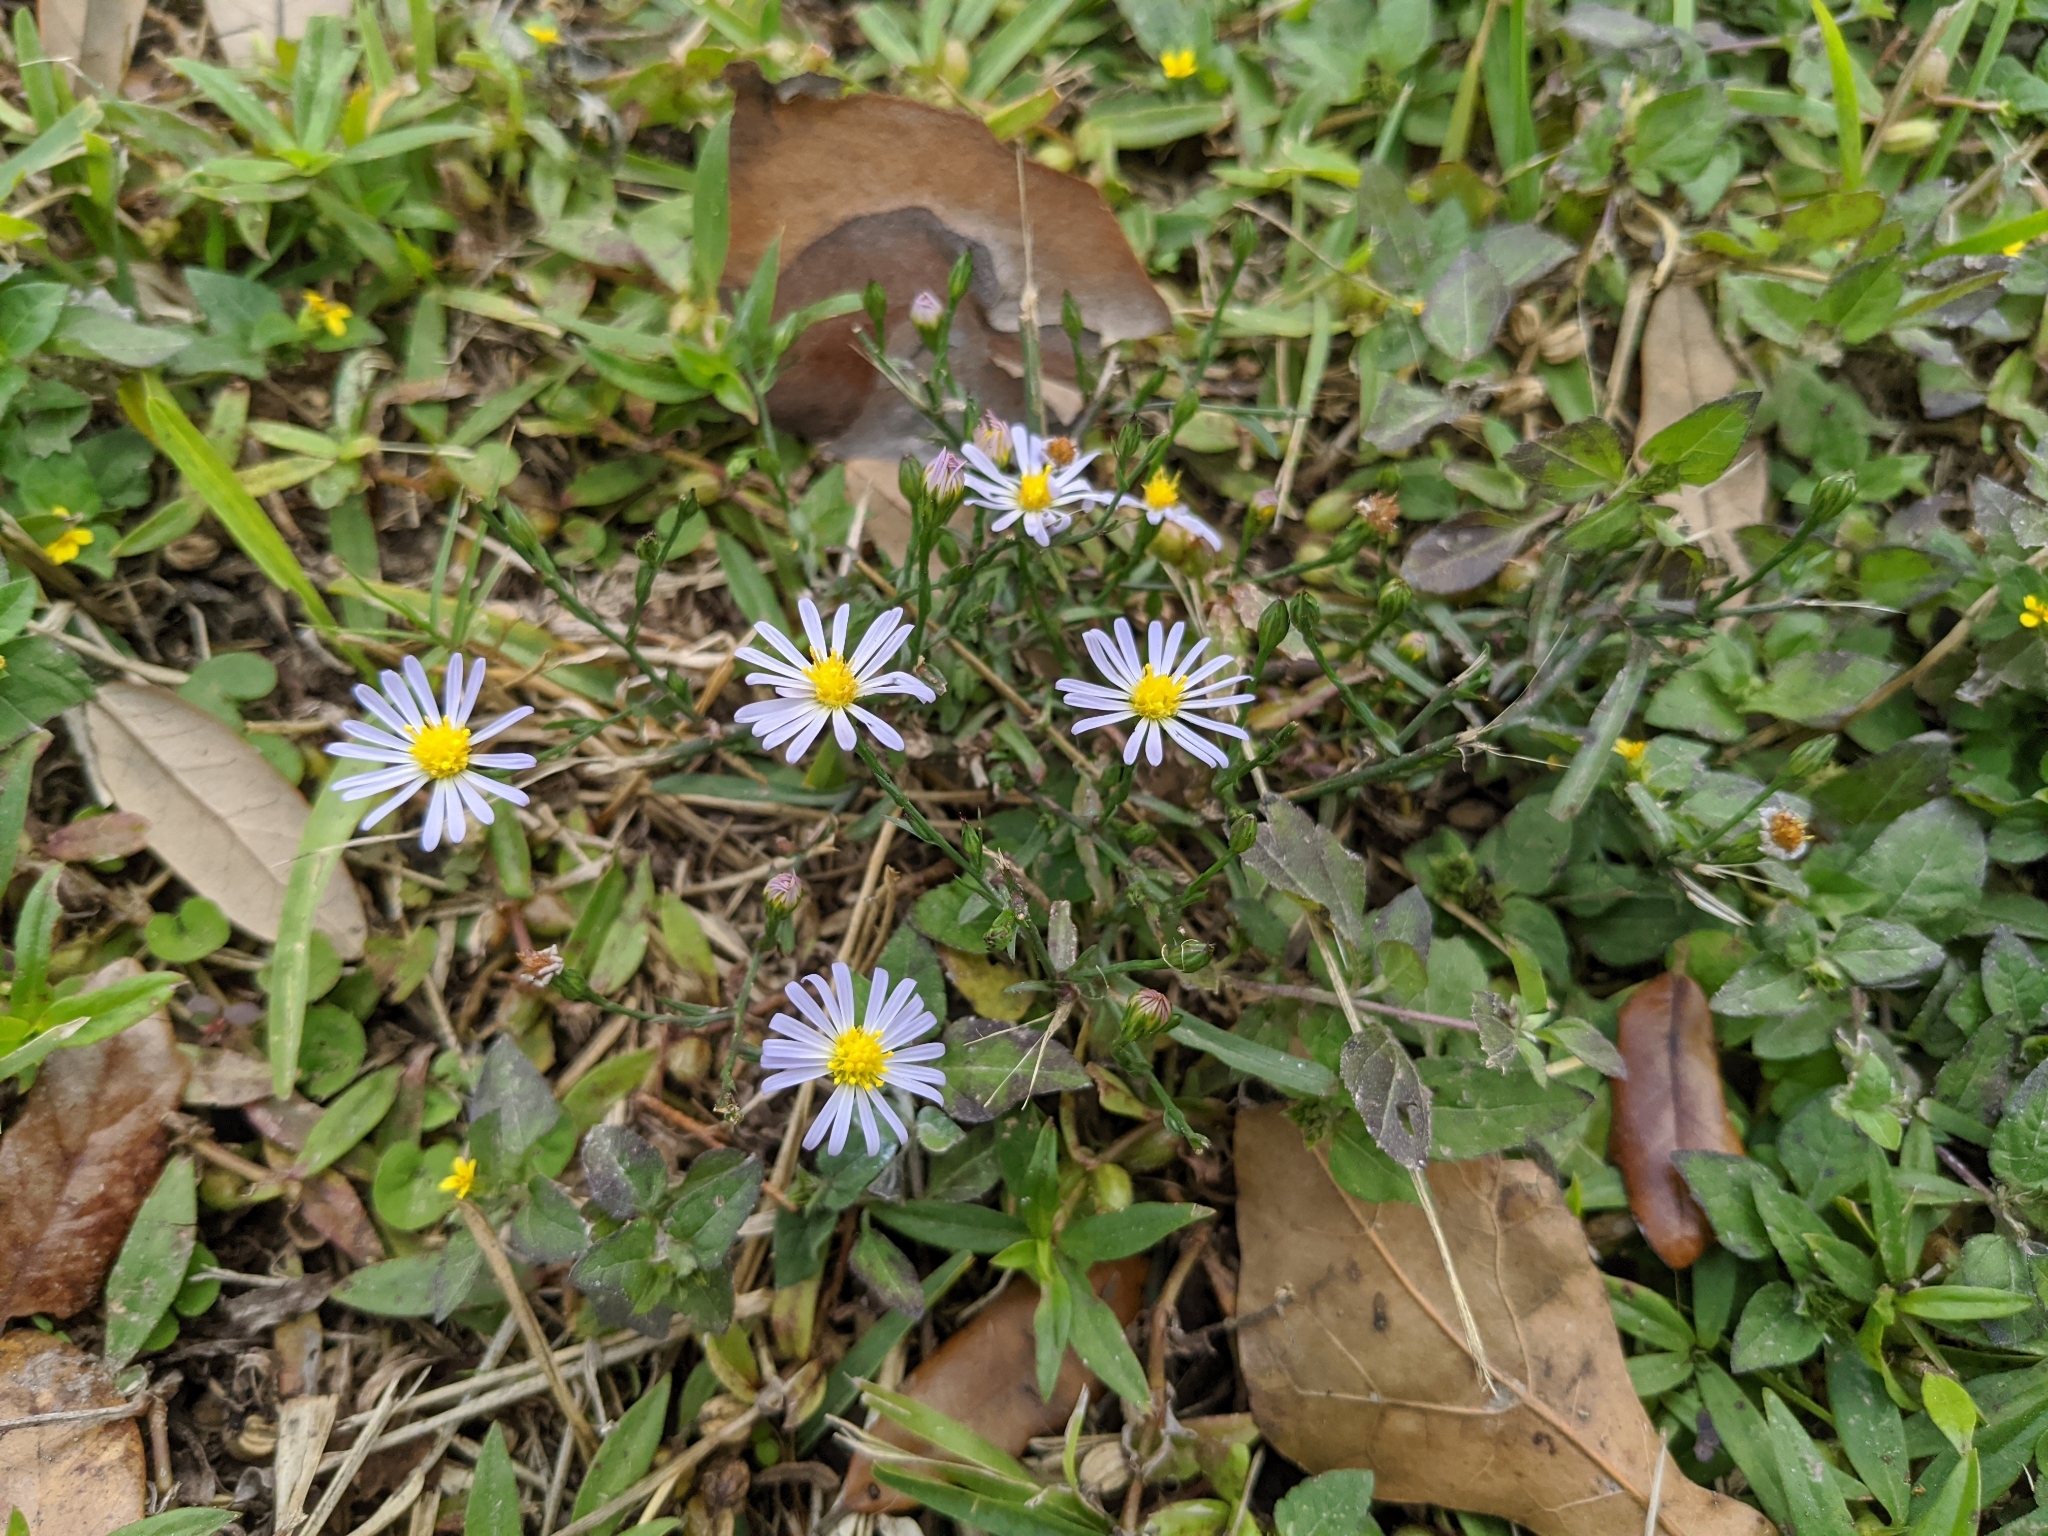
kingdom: Plantae
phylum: Tracheophyta
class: Magnoliopsida
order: Asterales
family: Asteraceae
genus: Symphyotrichum
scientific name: Symphyotrichum divaricatum
